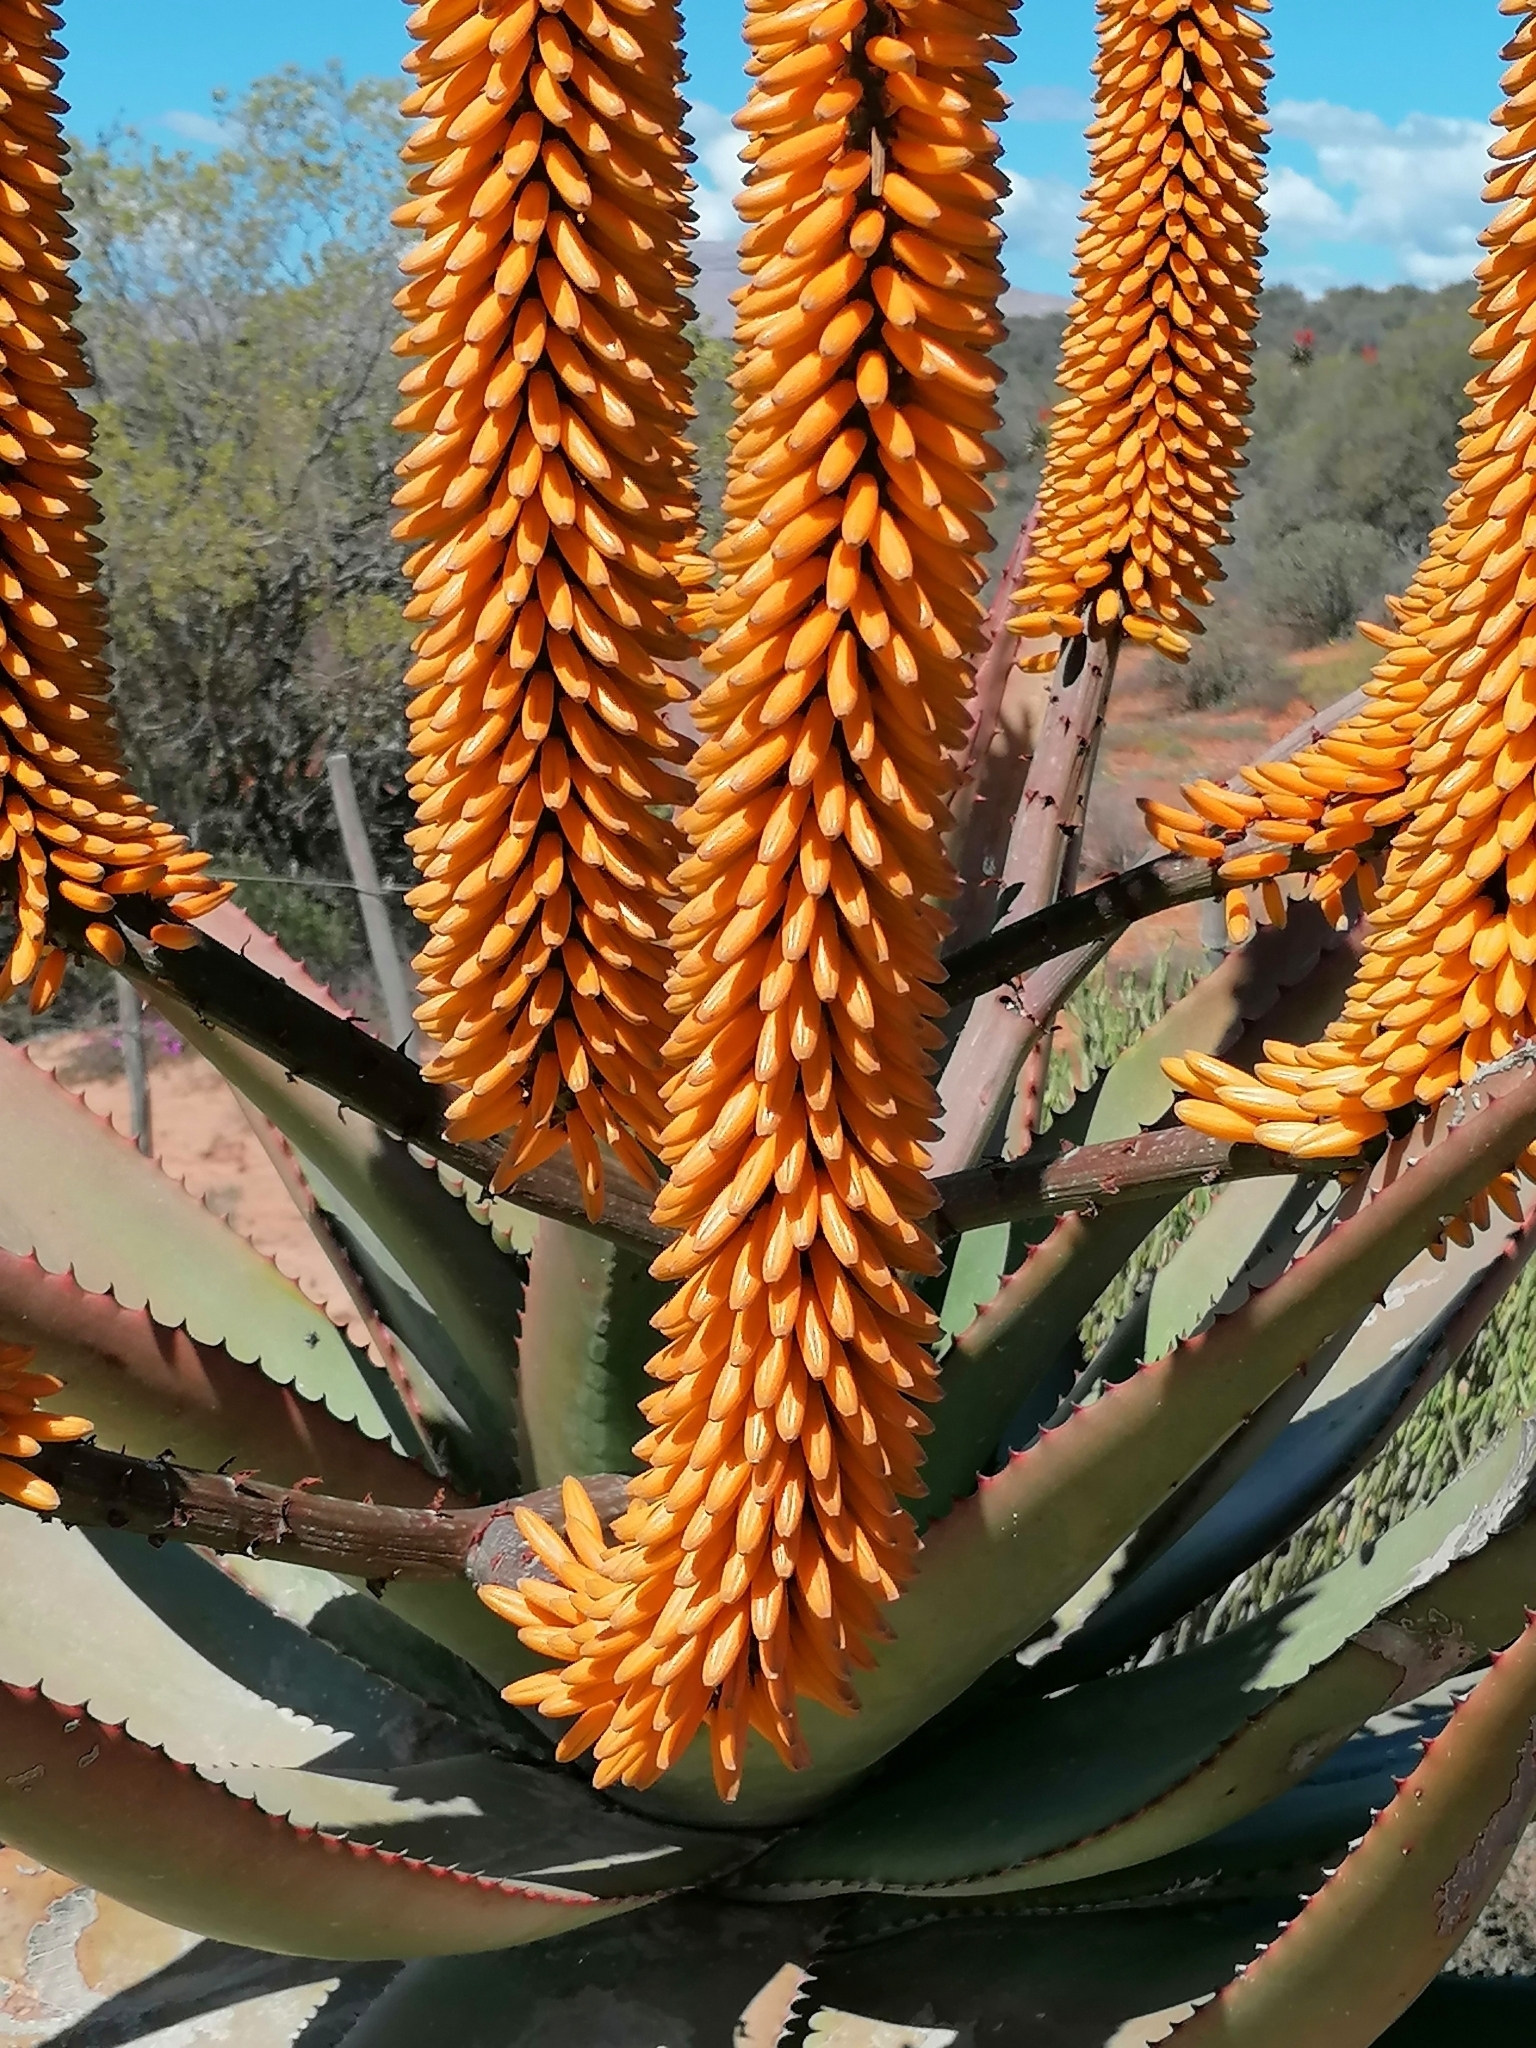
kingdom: Plantae
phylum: Tracheophyta
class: Liliopsida
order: Asparagales
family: Asphodelaceae
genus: Aloe
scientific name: Aloe ferox
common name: Bitter aloe
